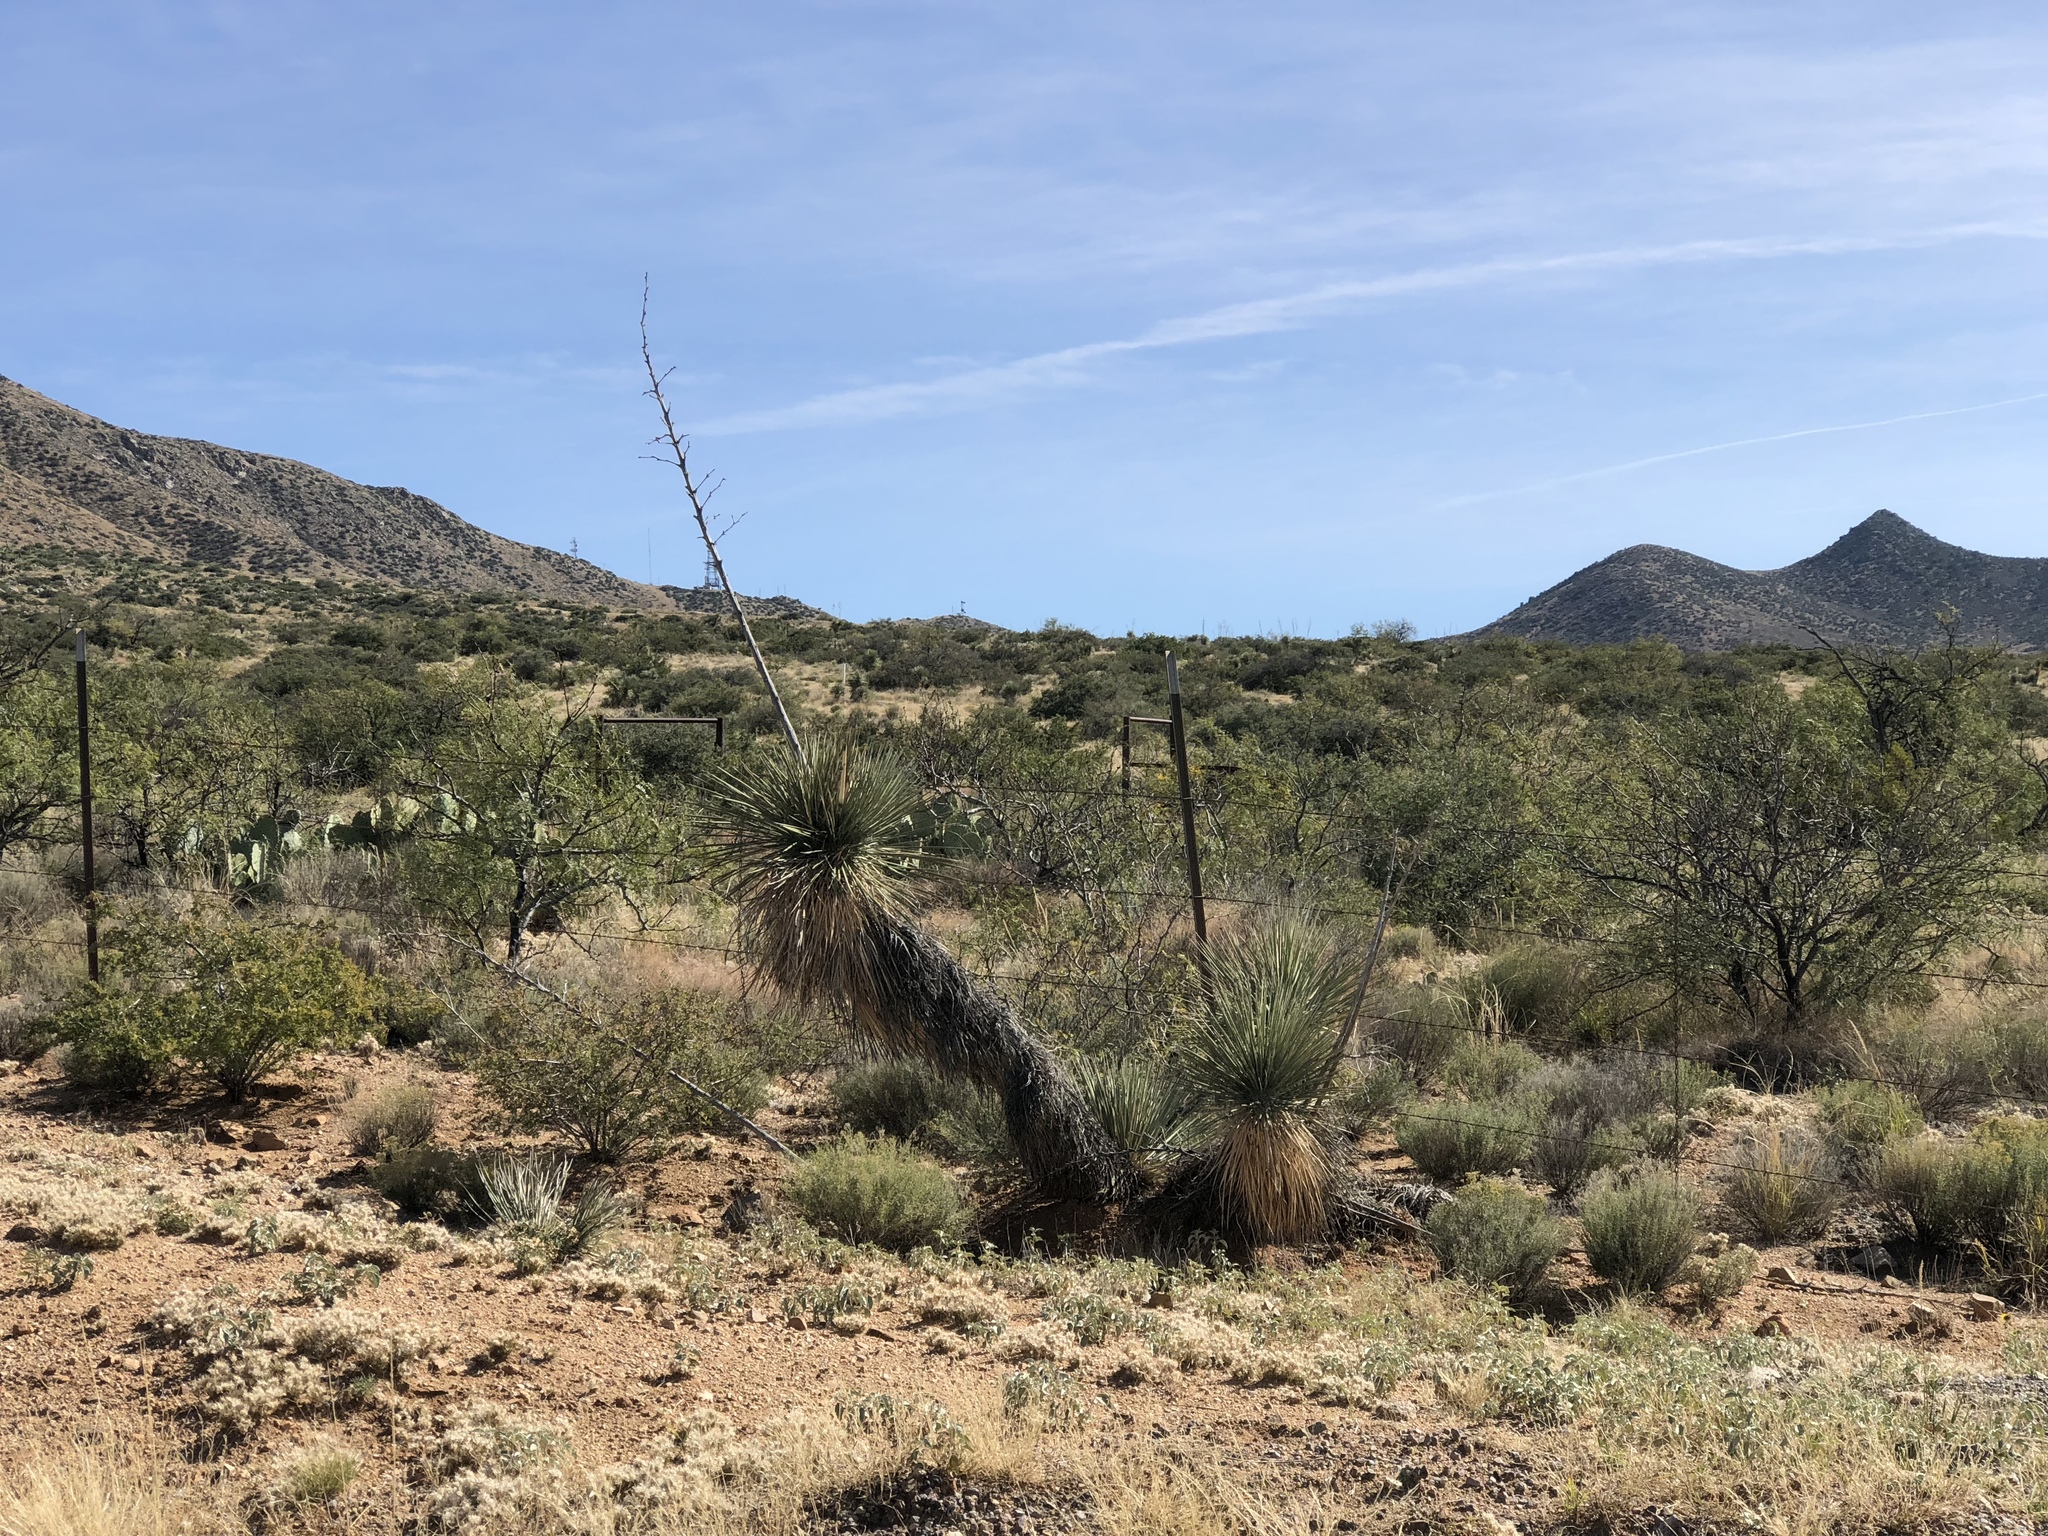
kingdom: Plantae
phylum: Tracheophyta
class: Liliopsida
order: Asparagales
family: Asparagaceae
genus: Yucca
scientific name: Yucca elata
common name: Palmella
